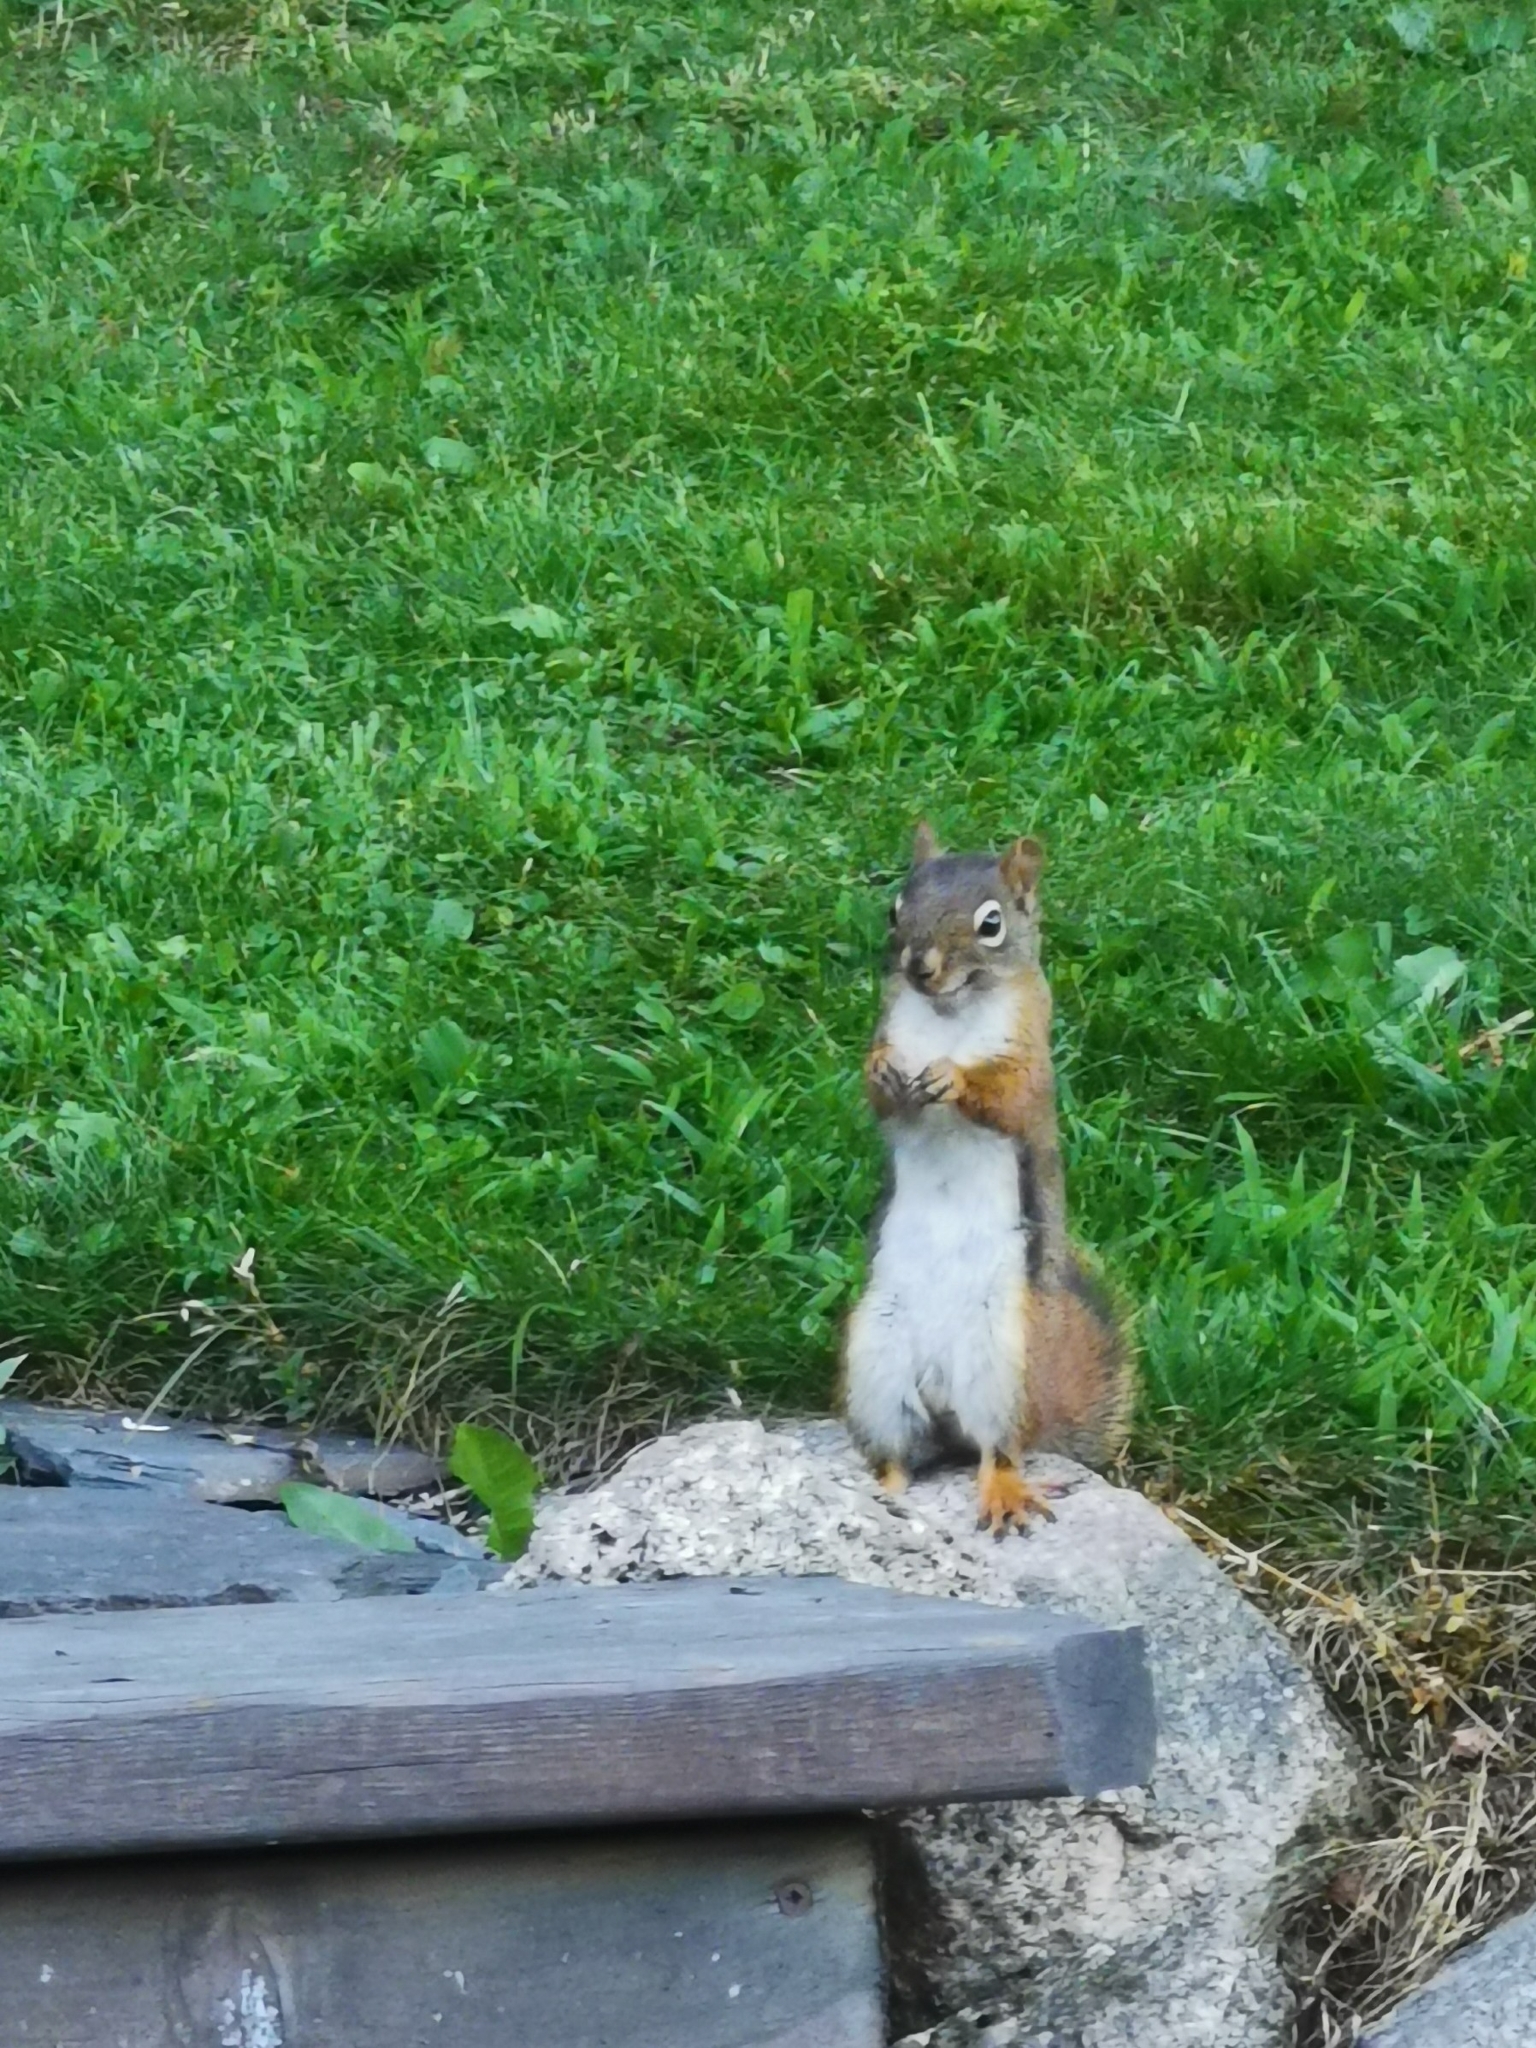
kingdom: Animalia
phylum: Chordata
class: Mammalia
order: Rodentia
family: Sciuridae
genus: Tamiasciurus
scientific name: Tamiasciurus hudsonicus
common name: Red squirrel
